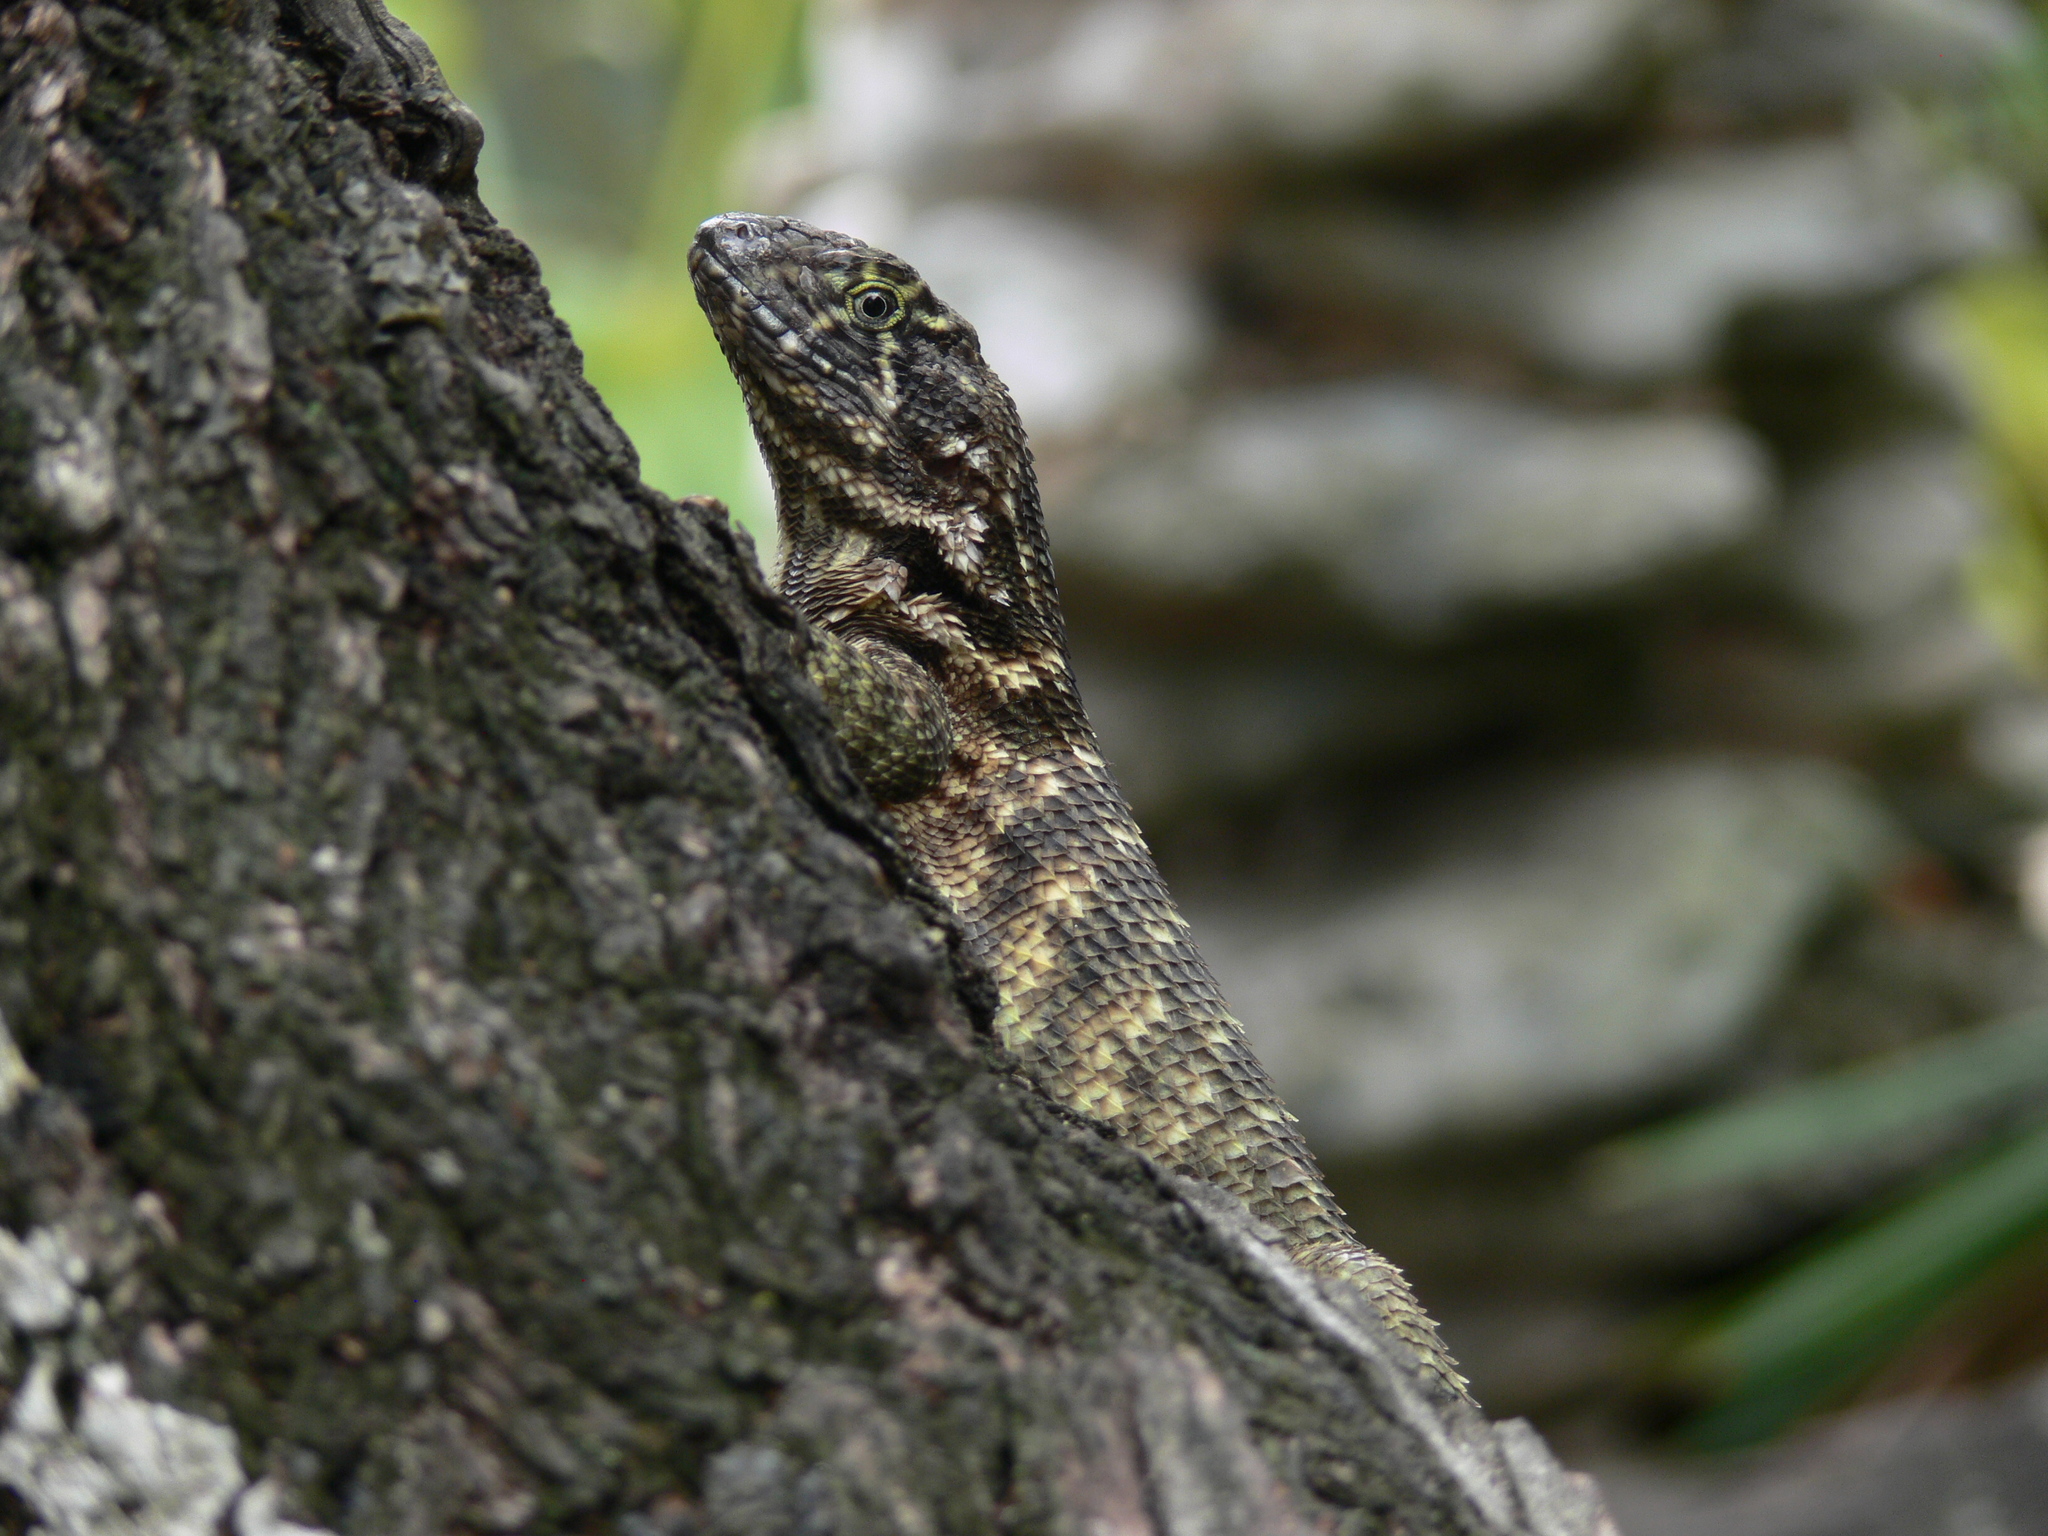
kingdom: Animalia
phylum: Chordata
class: Squamata
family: Leiocephalidae
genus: Leiocephalus
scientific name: Leiocephalus carinatus
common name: Northern curly-tailed lizard
